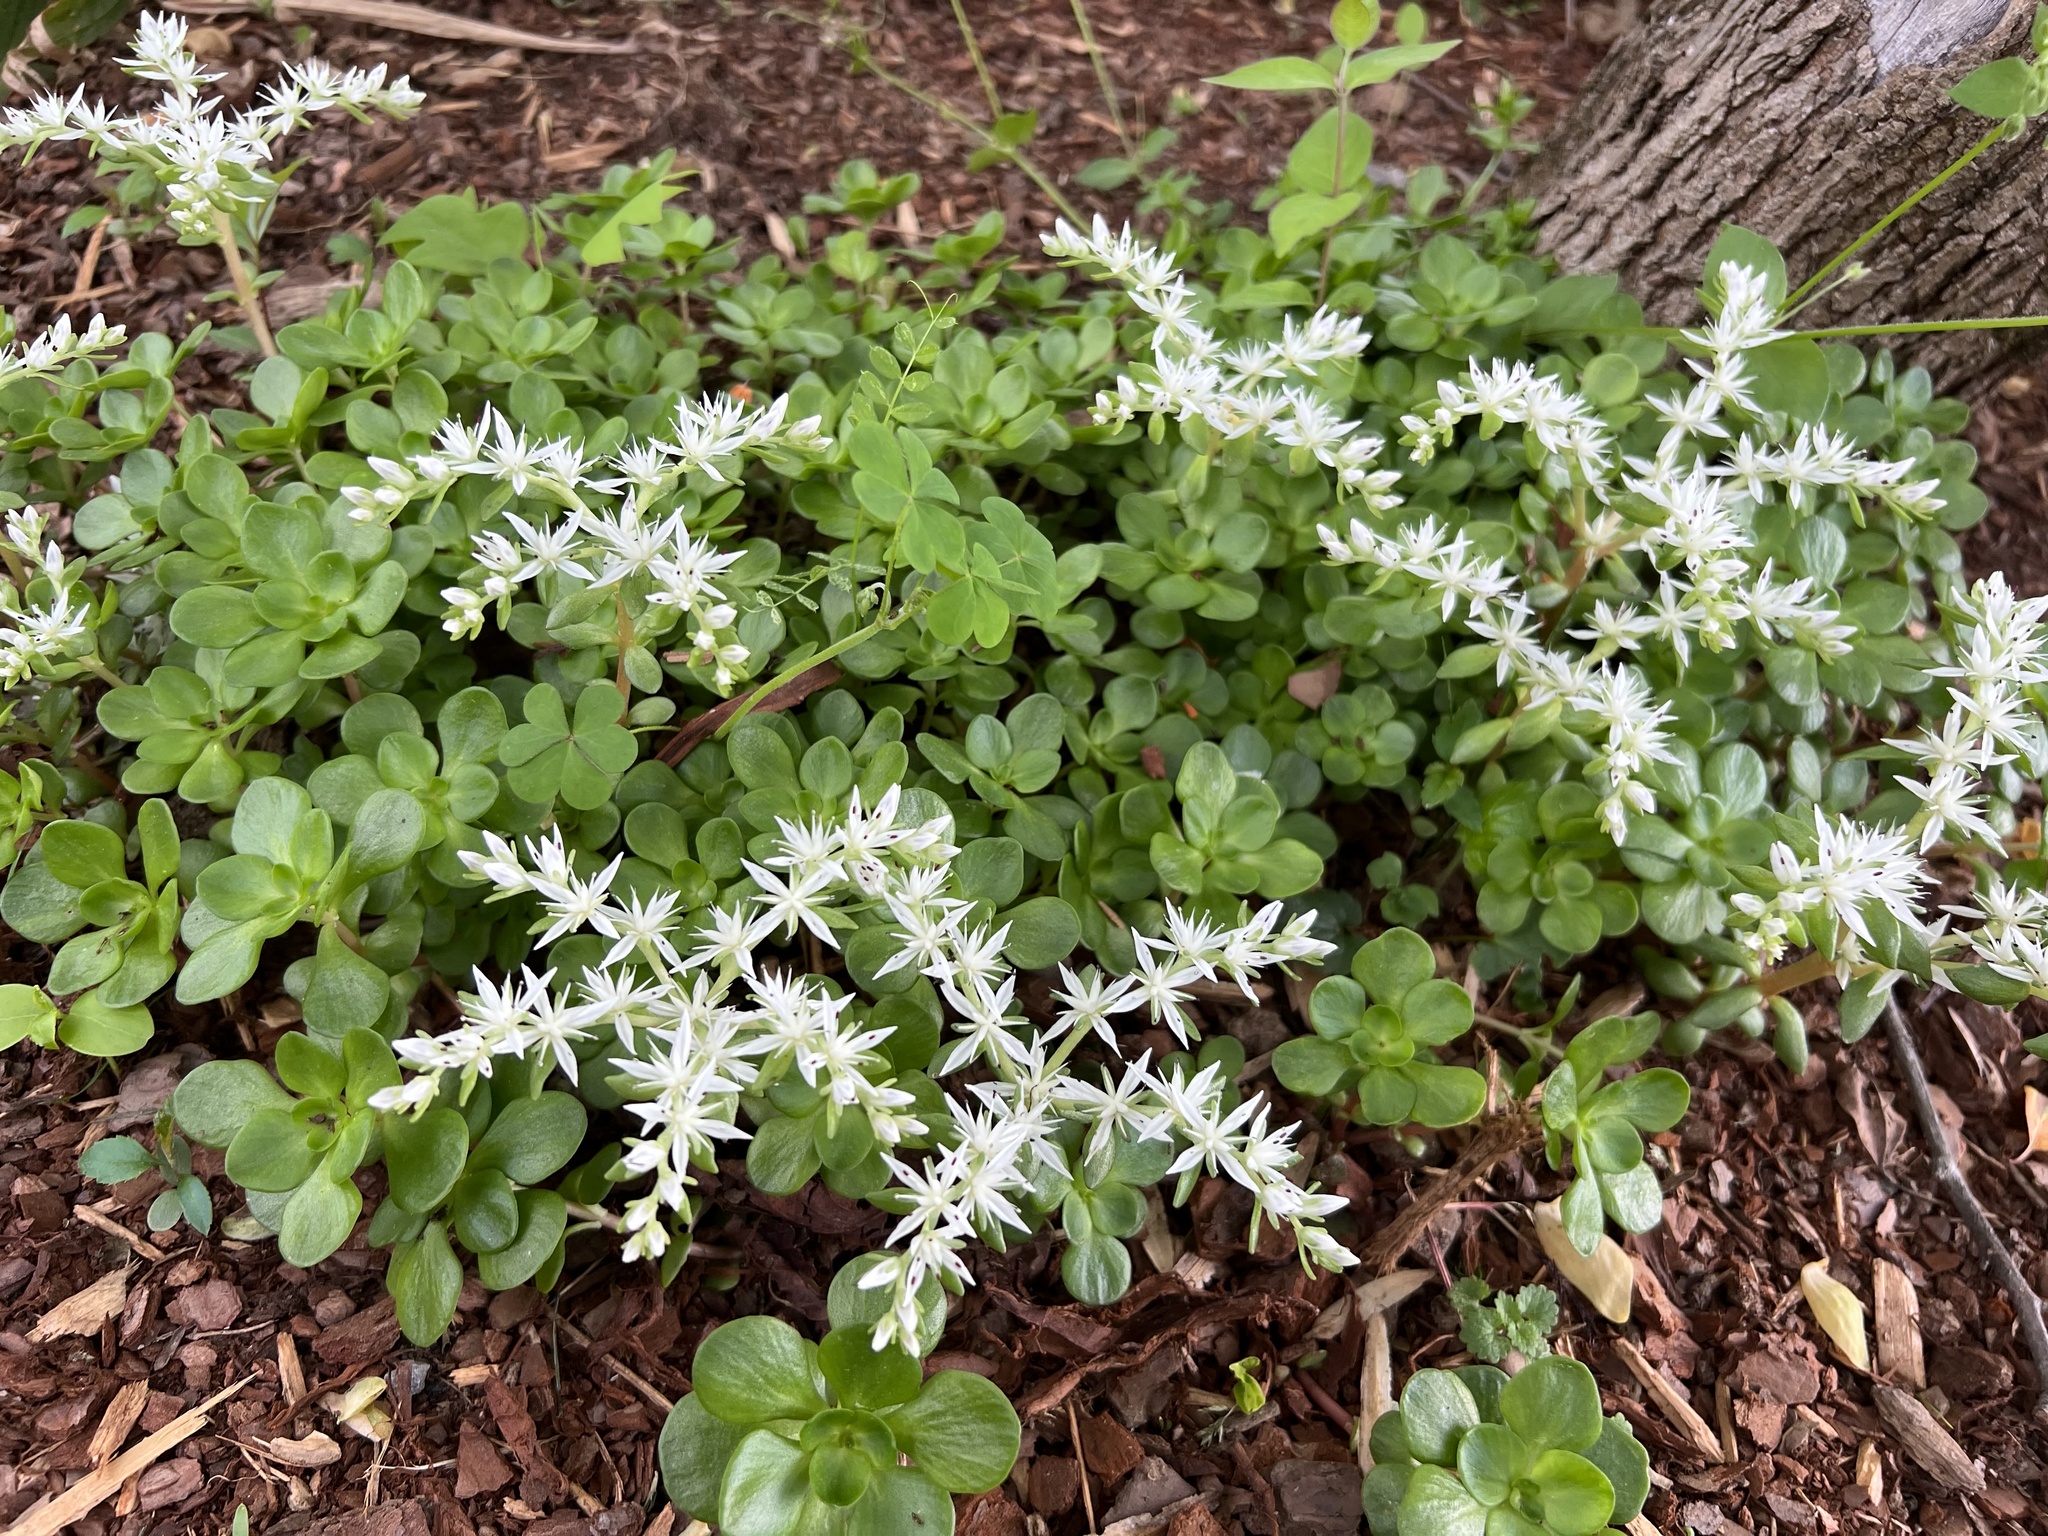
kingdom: Plantae
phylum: Tracheophyta
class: Magnoliopsida
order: Saxifragales
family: Crassulaceae
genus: Sedum
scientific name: Sedum ternatum
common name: Wild stonecrop
